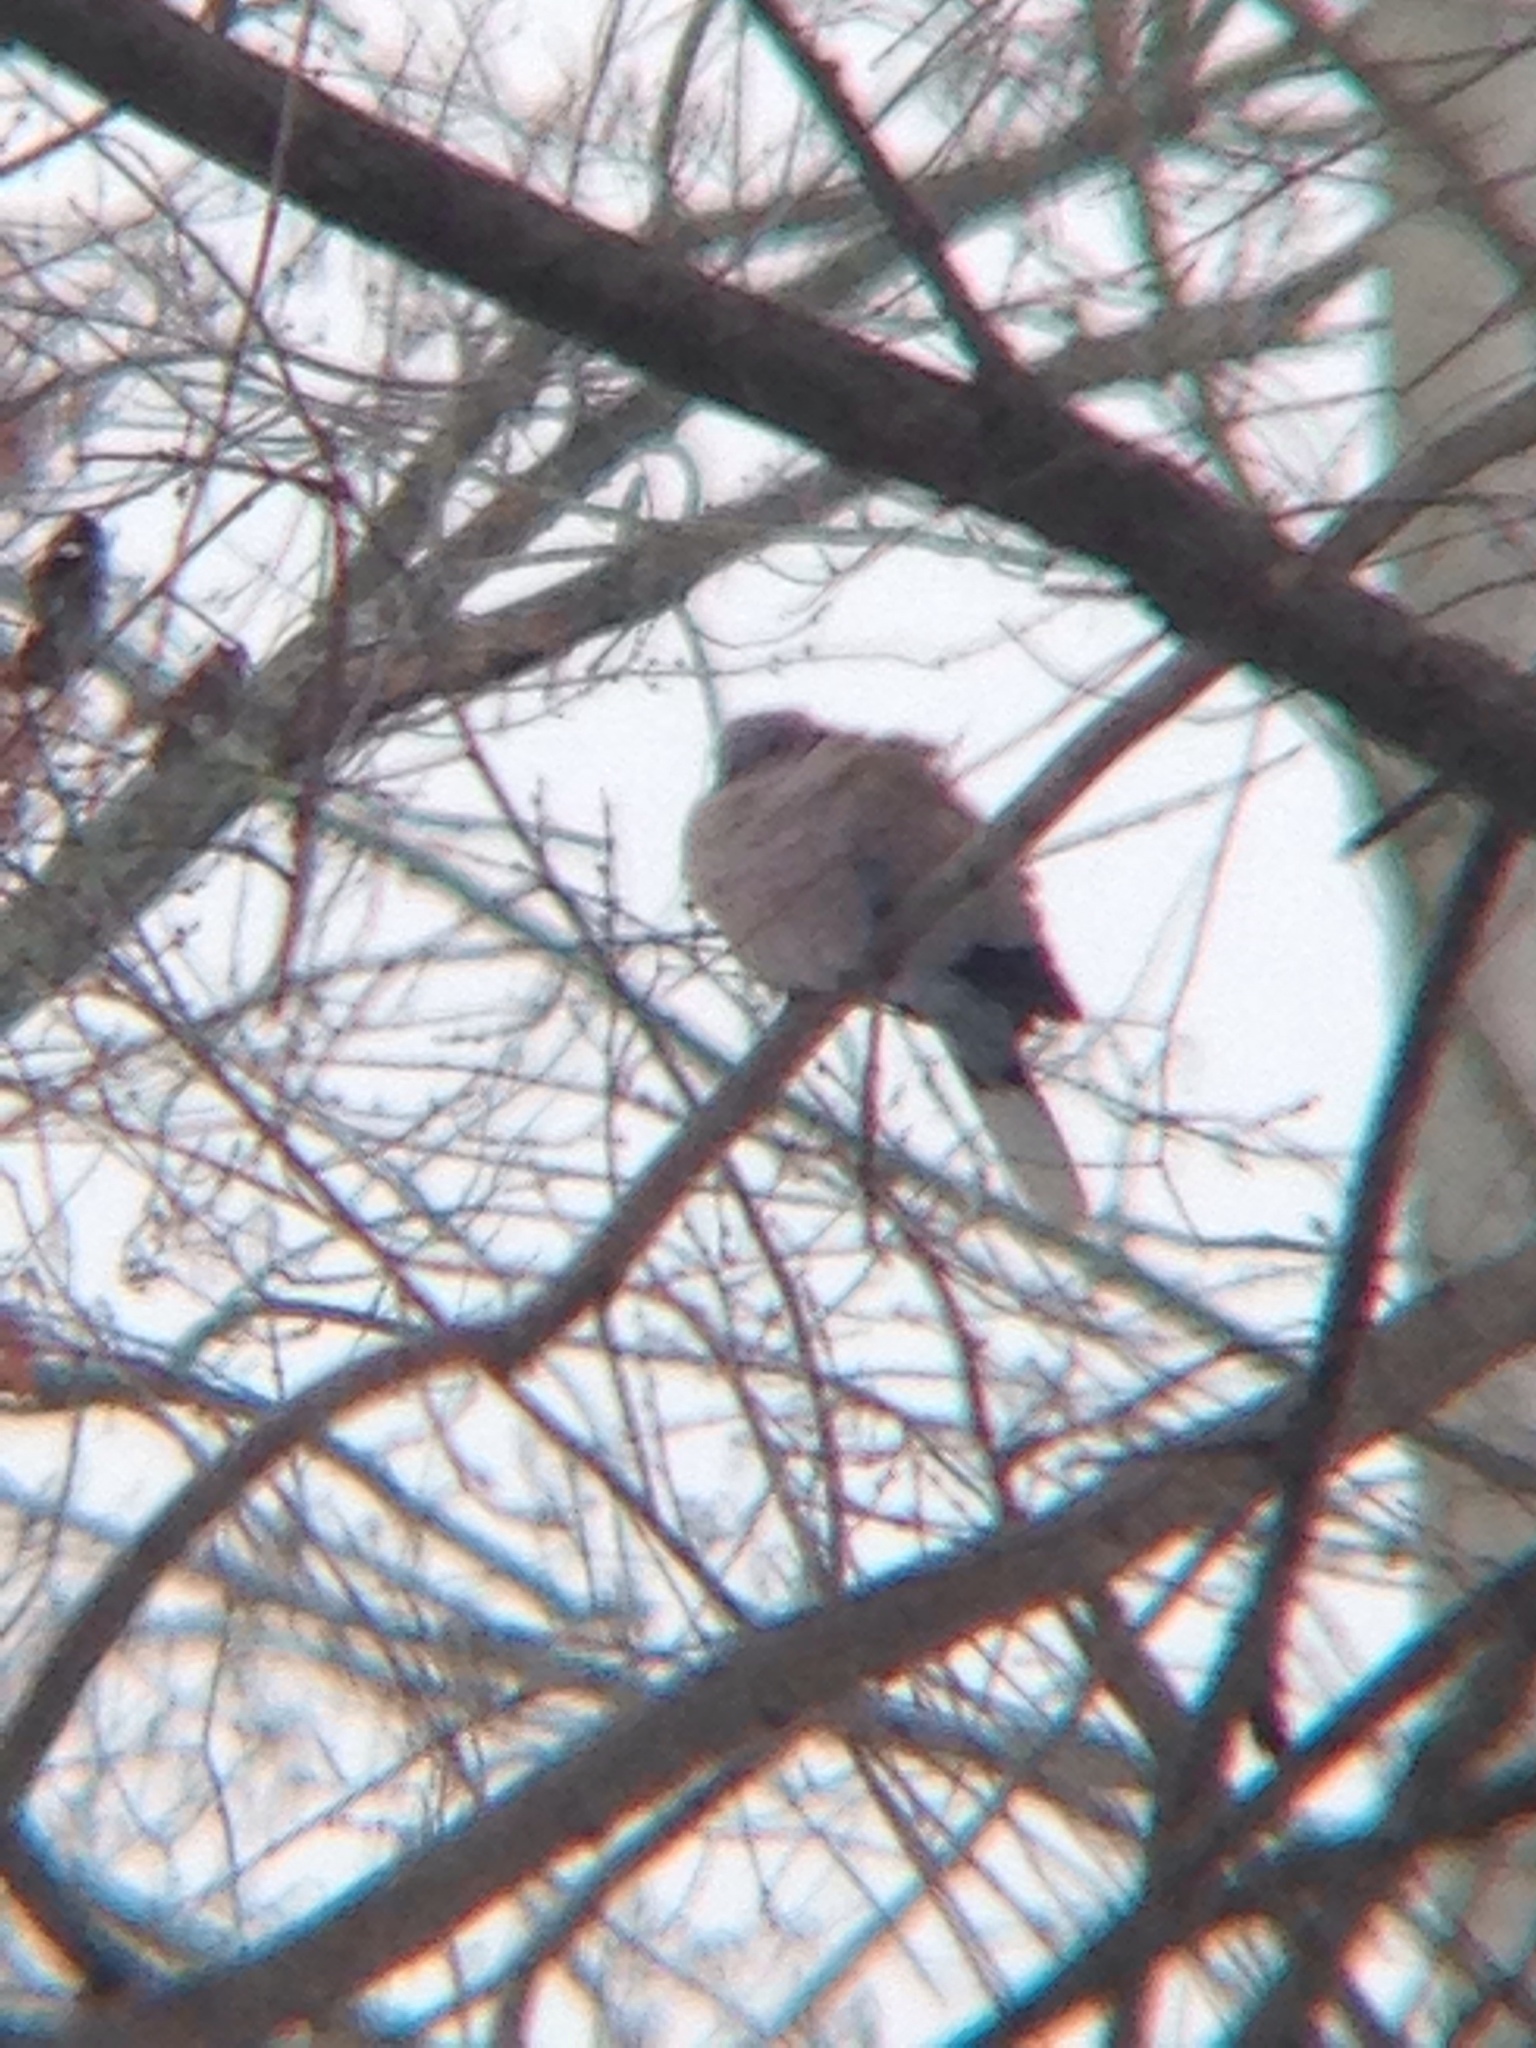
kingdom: Animalia
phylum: Chordata
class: Aves
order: Columbiformes
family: Columbidae
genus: Streptopelia
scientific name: Streptopelia decaocto
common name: Eurasian collared dove
